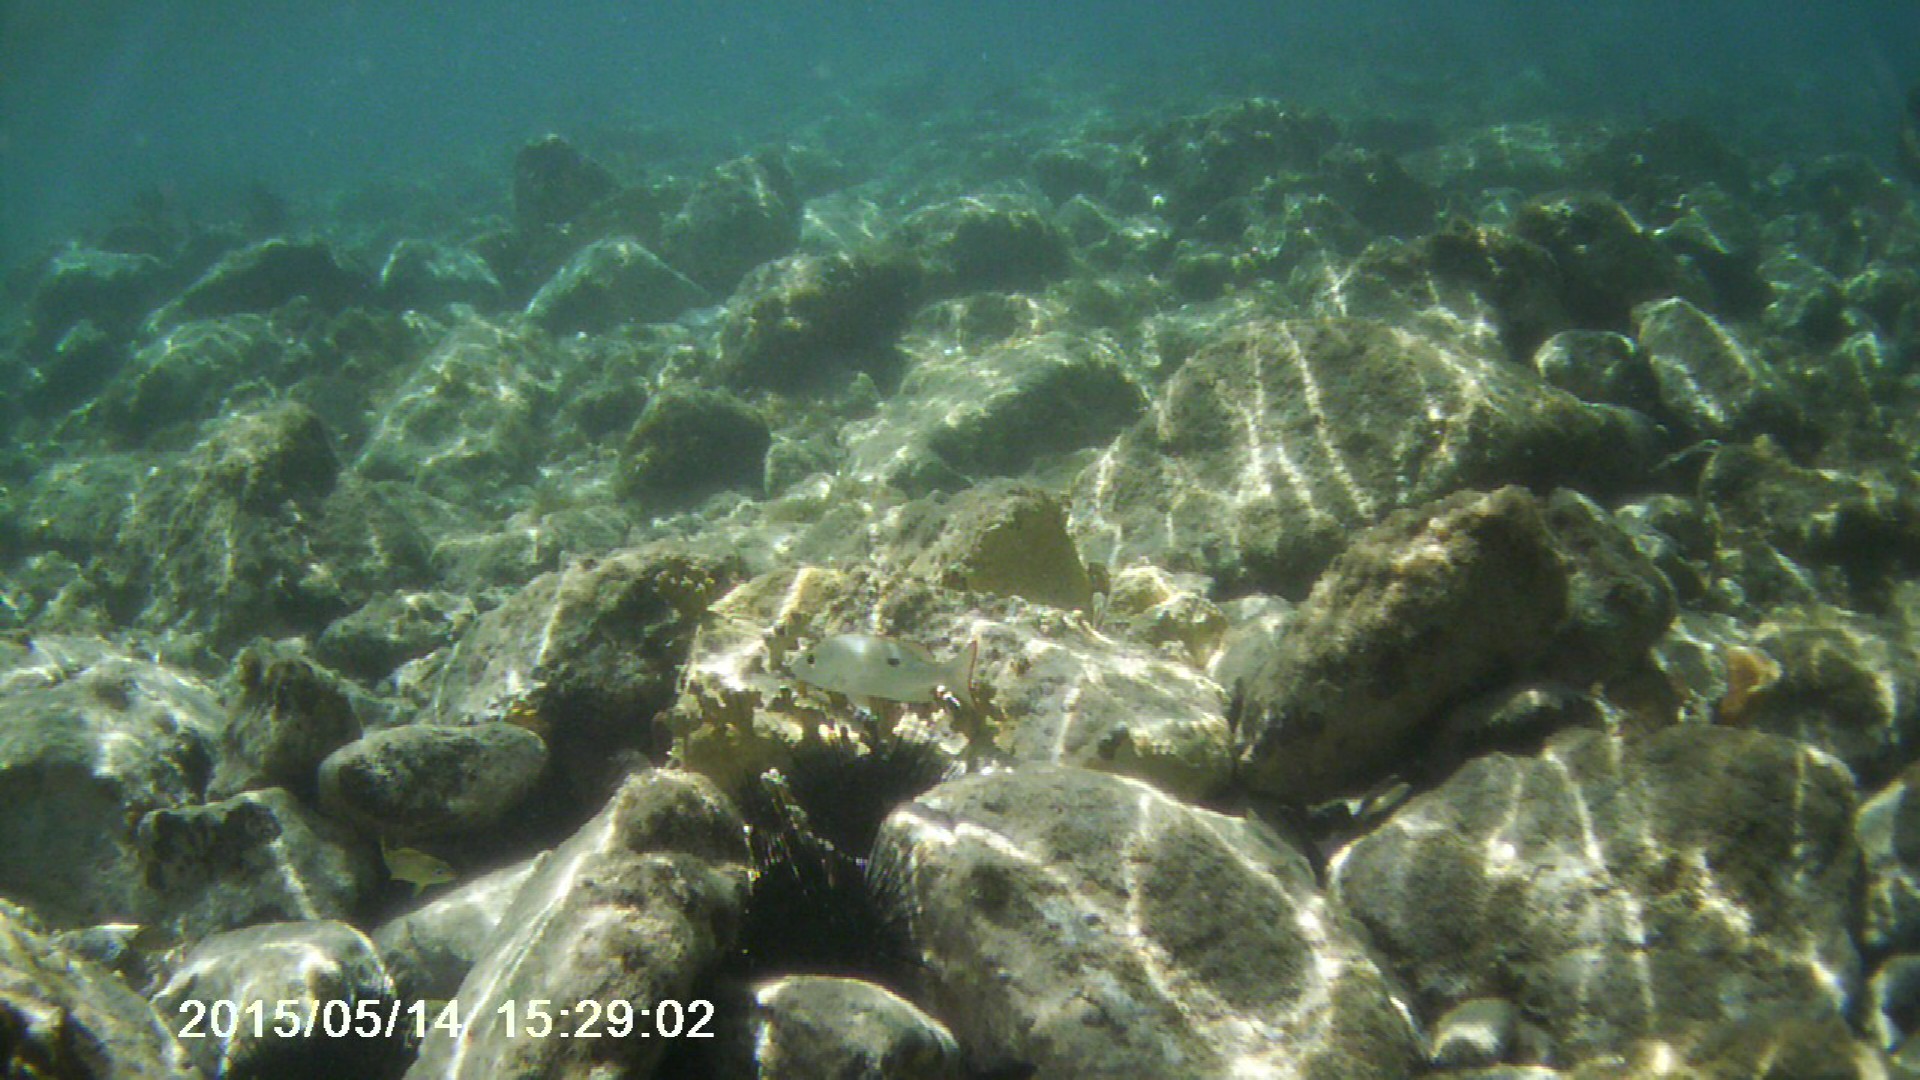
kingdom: Animalia
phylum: Chordata
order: Perciformes
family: Lutjanidae
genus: Lutjanus
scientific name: Lutjanus mahogoni
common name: Spot snapper
